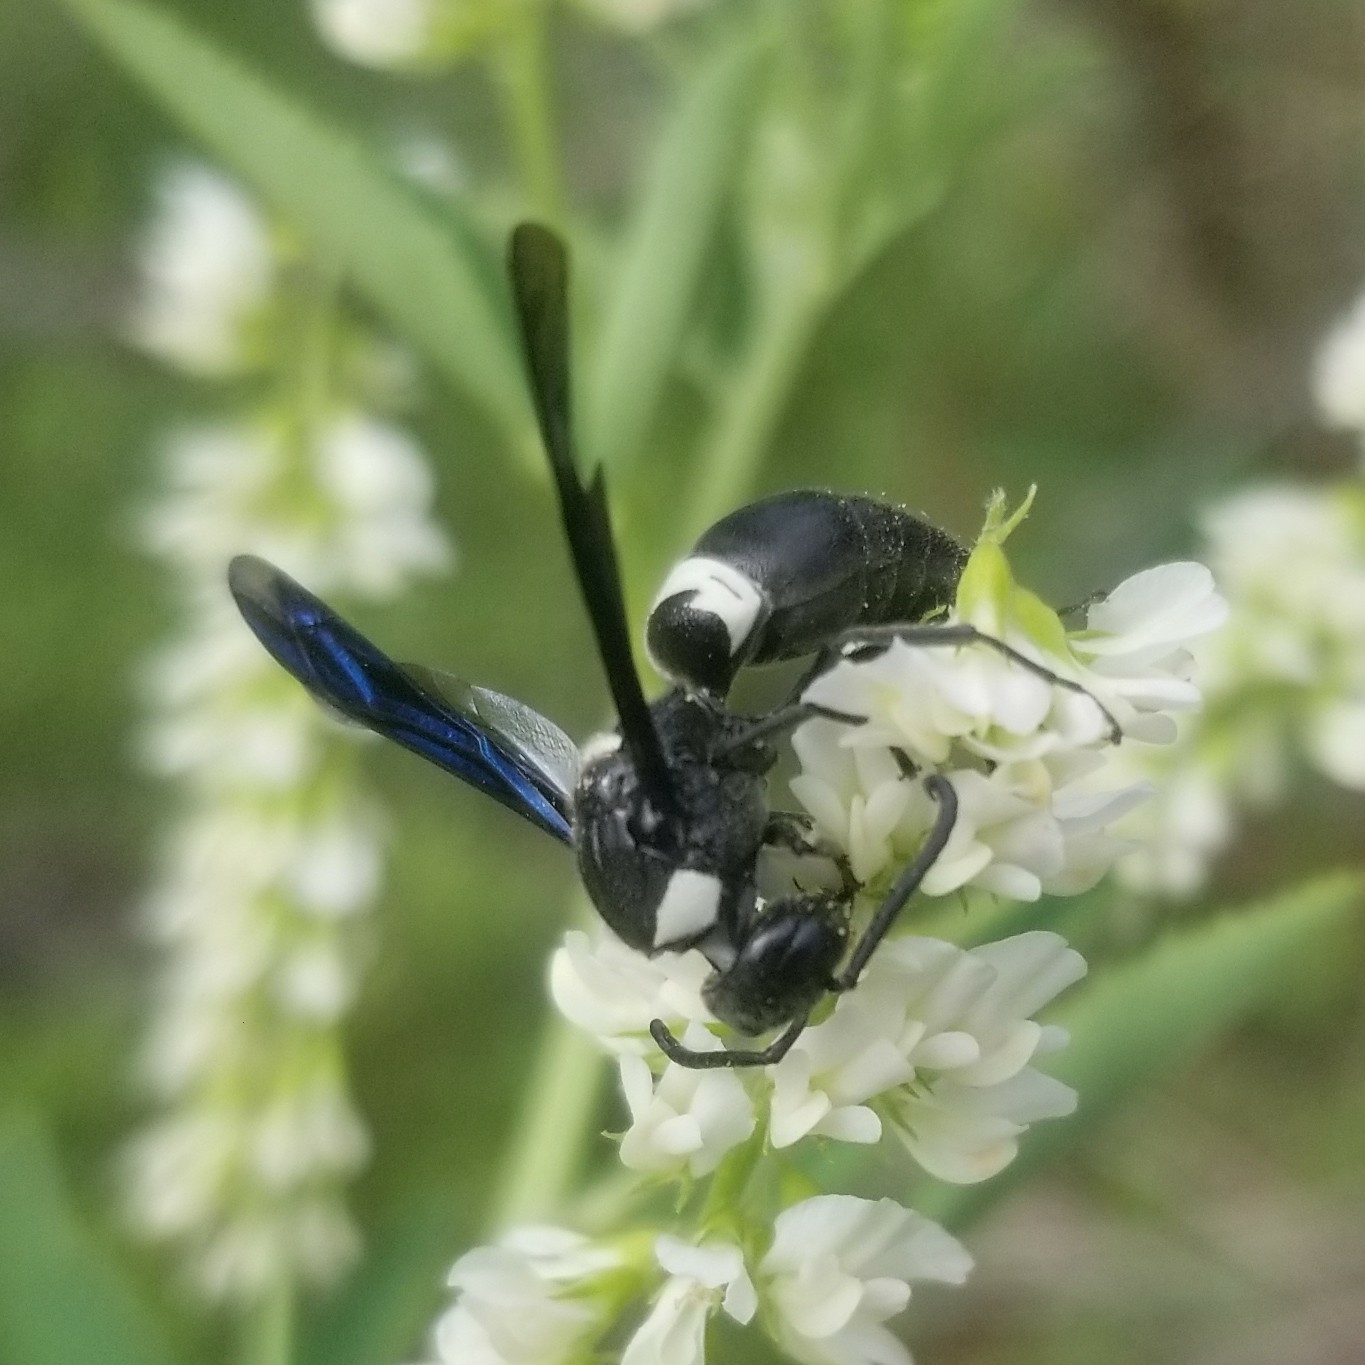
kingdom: Animalia
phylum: Arthropoda
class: Insecta
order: Hymenoptera
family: Eumenidae
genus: Monobia
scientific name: Monobia quadridens
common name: Four-toothed mason wasp
